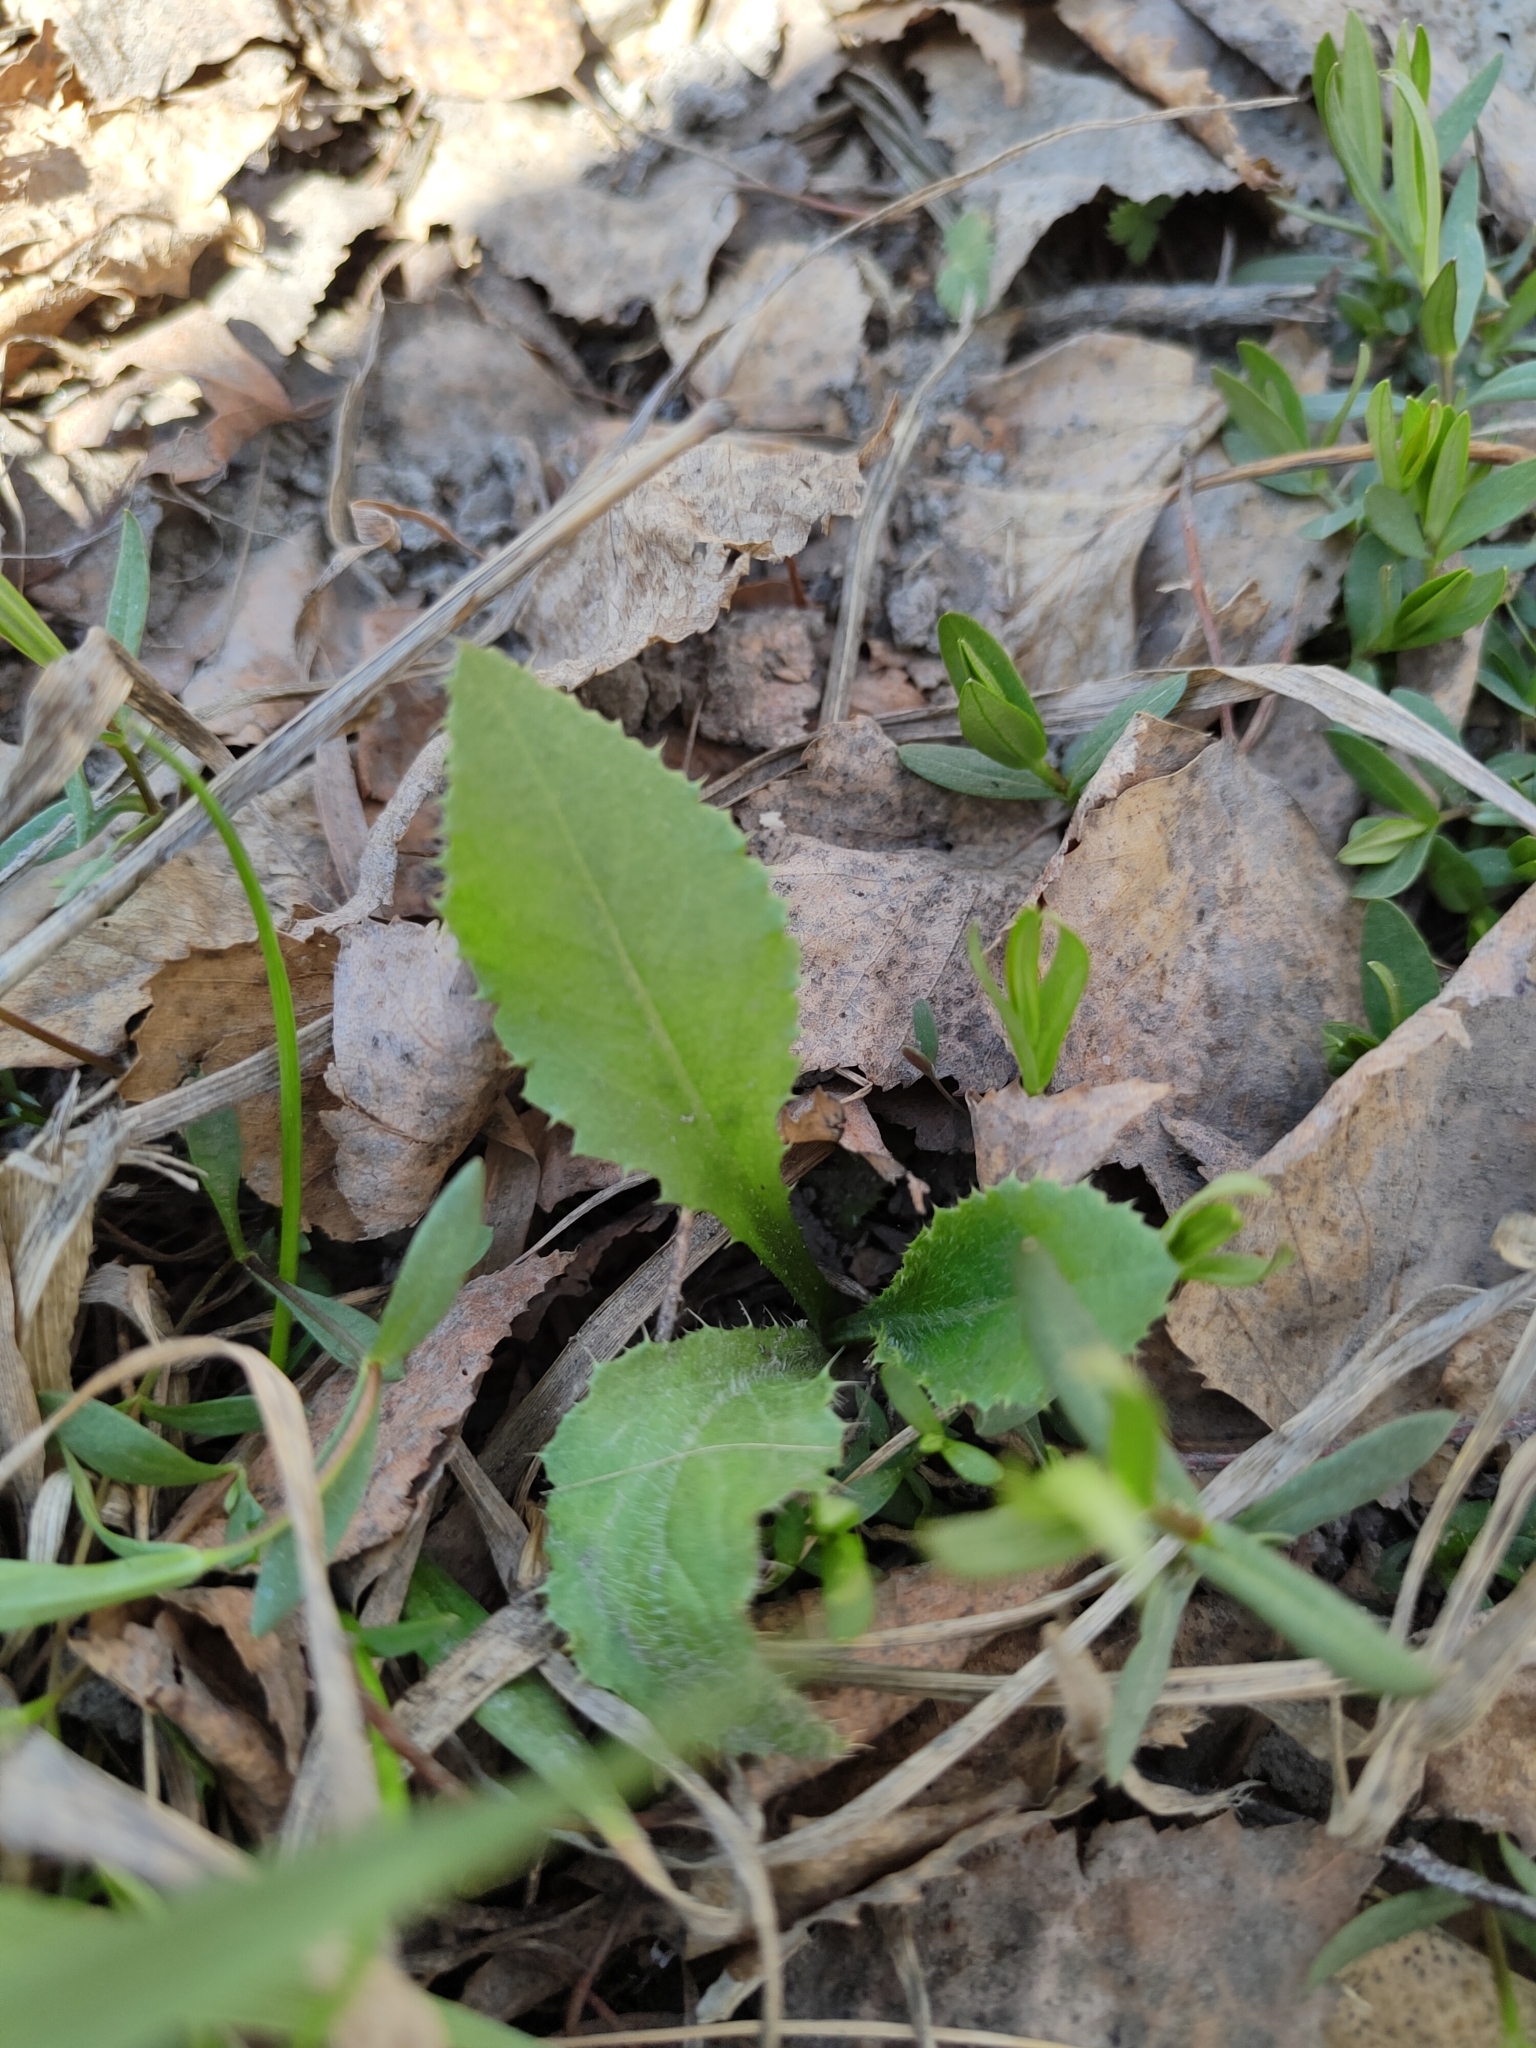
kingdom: Plantae
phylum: Tracheophyta
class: Magnoliopsida
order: Asterales
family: Asteraceae
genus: Cirsium
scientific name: Cirsium arvense
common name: Creeping thistle
